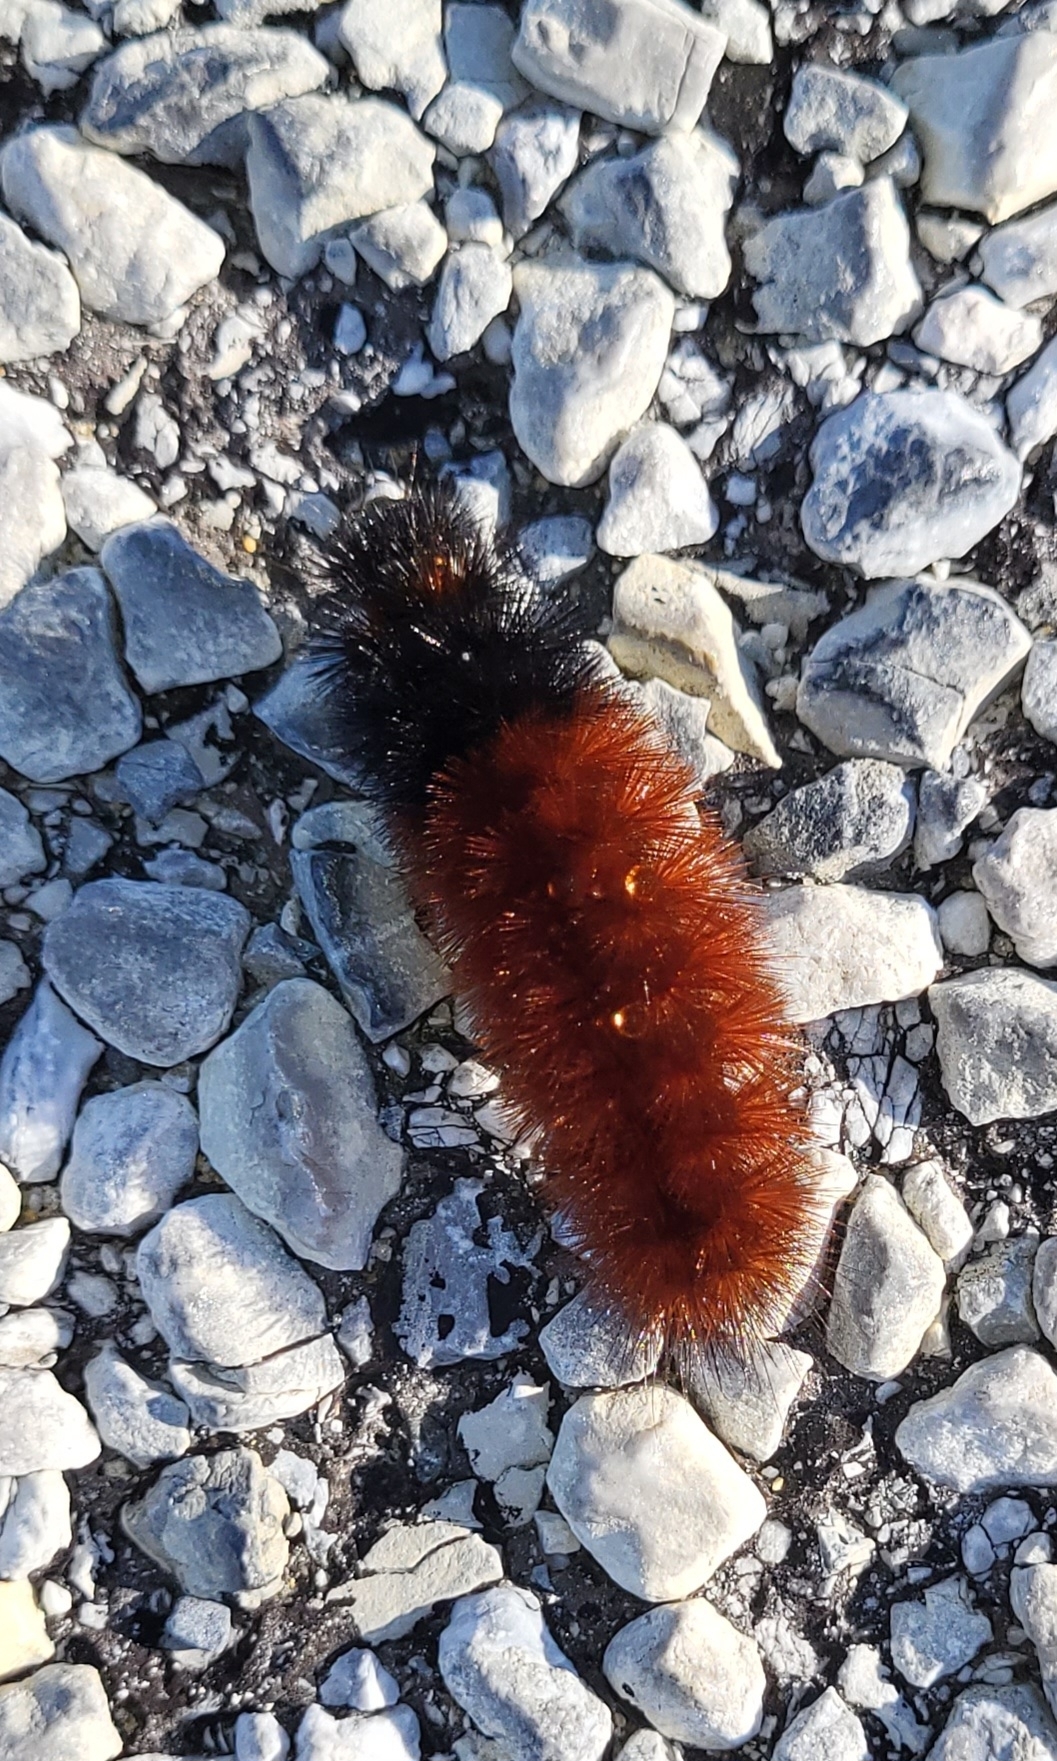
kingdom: Animalia
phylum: Arthropoda
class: Insecta
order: Lepidoptera
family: Erebidae
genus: Pyrrharctia
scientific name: Pyrrharctia isabella
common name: Isabella tiger moth
